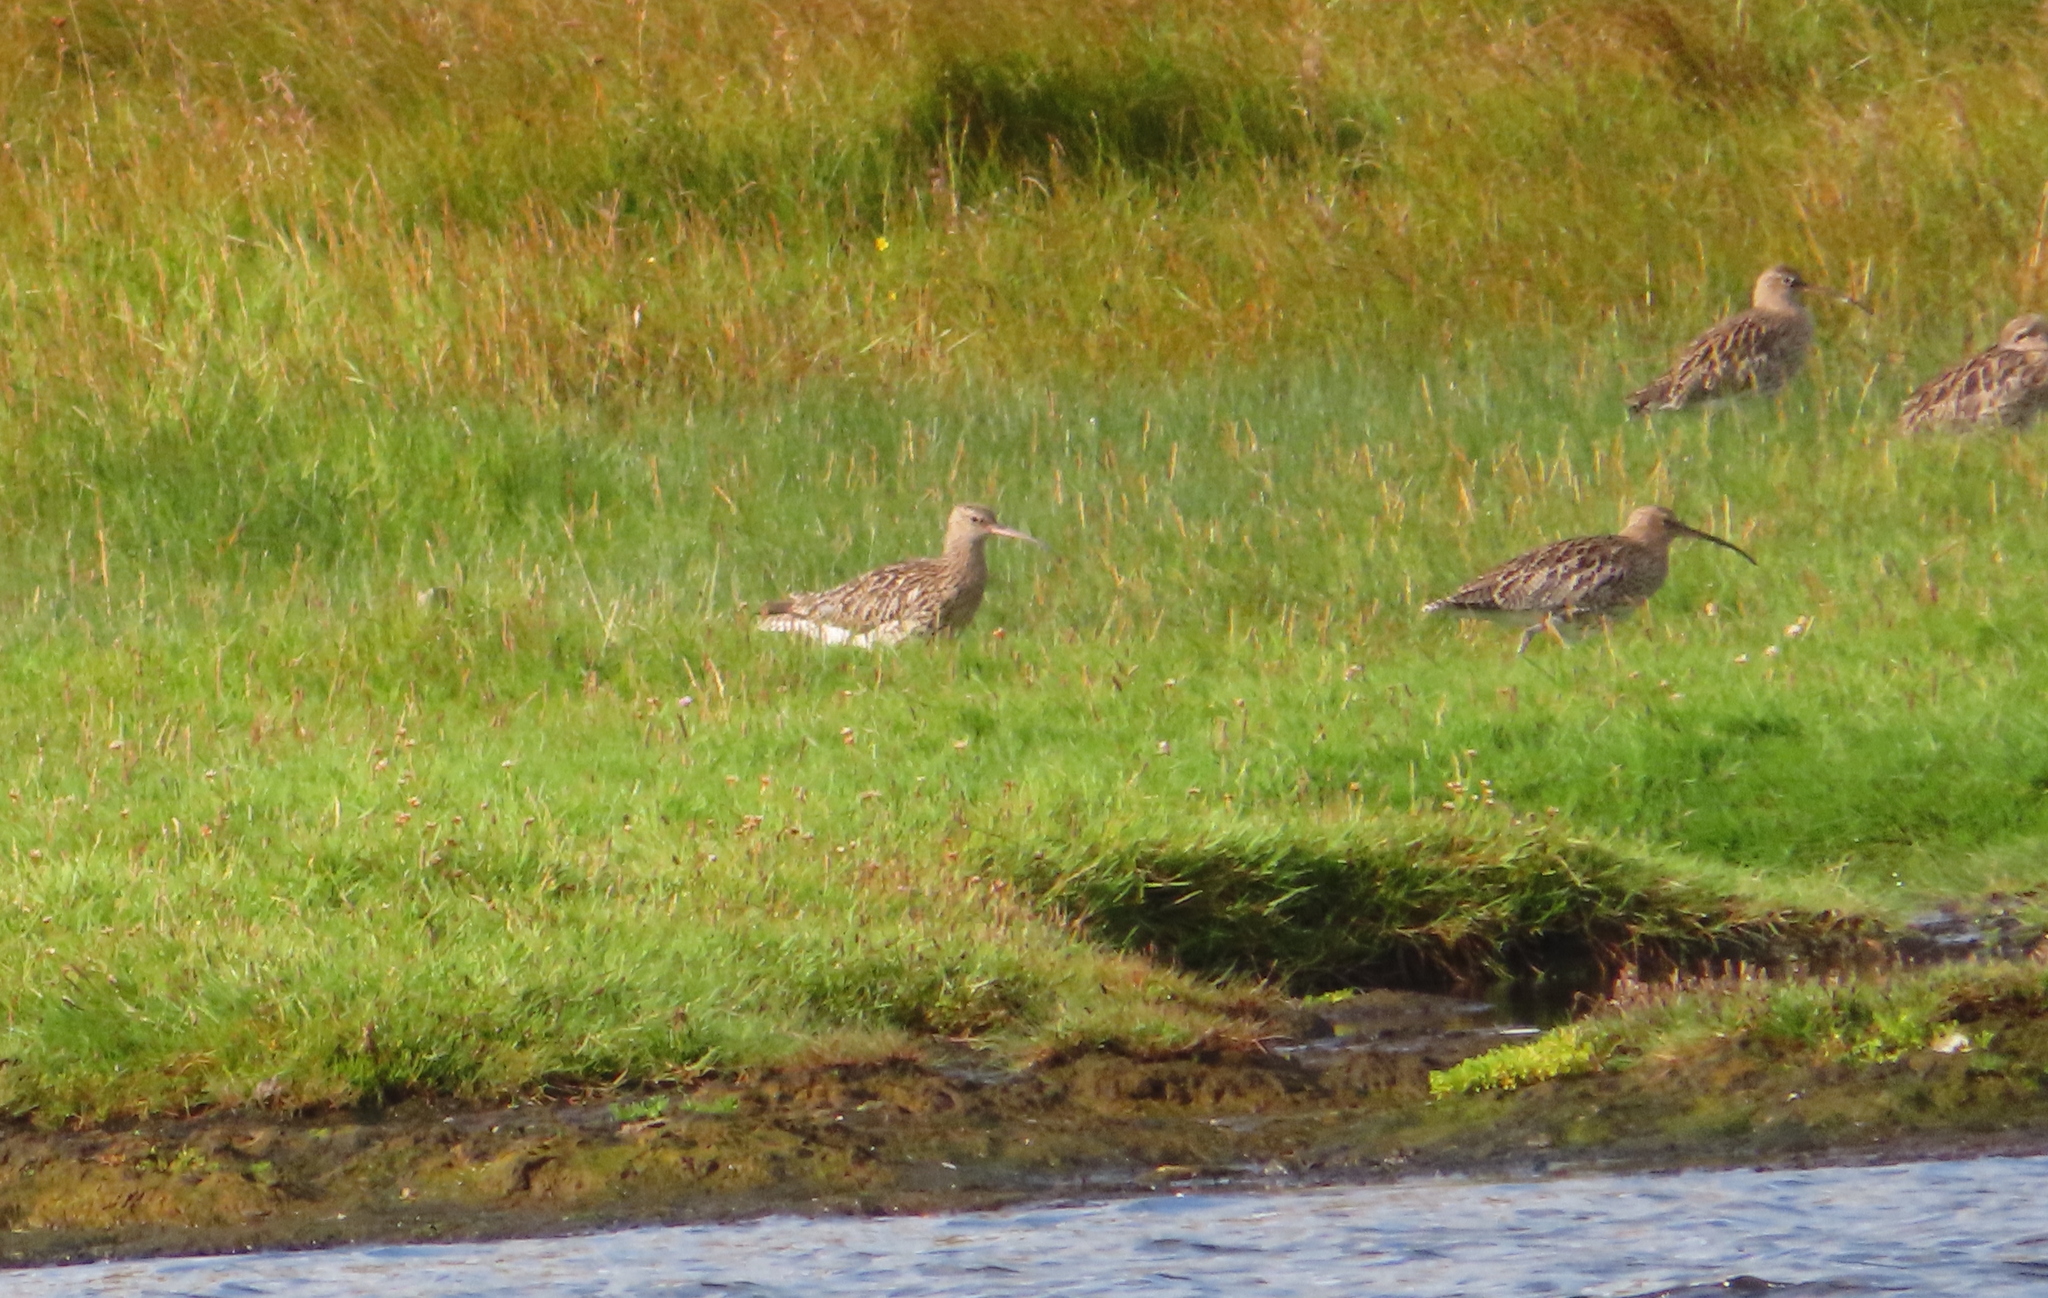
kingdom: Animalia
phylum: Chordata
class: Aves
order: Charadriiformes
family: Scolopacidae
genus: Numenius
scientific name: Numenius arquata
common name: Eurasian curlew
